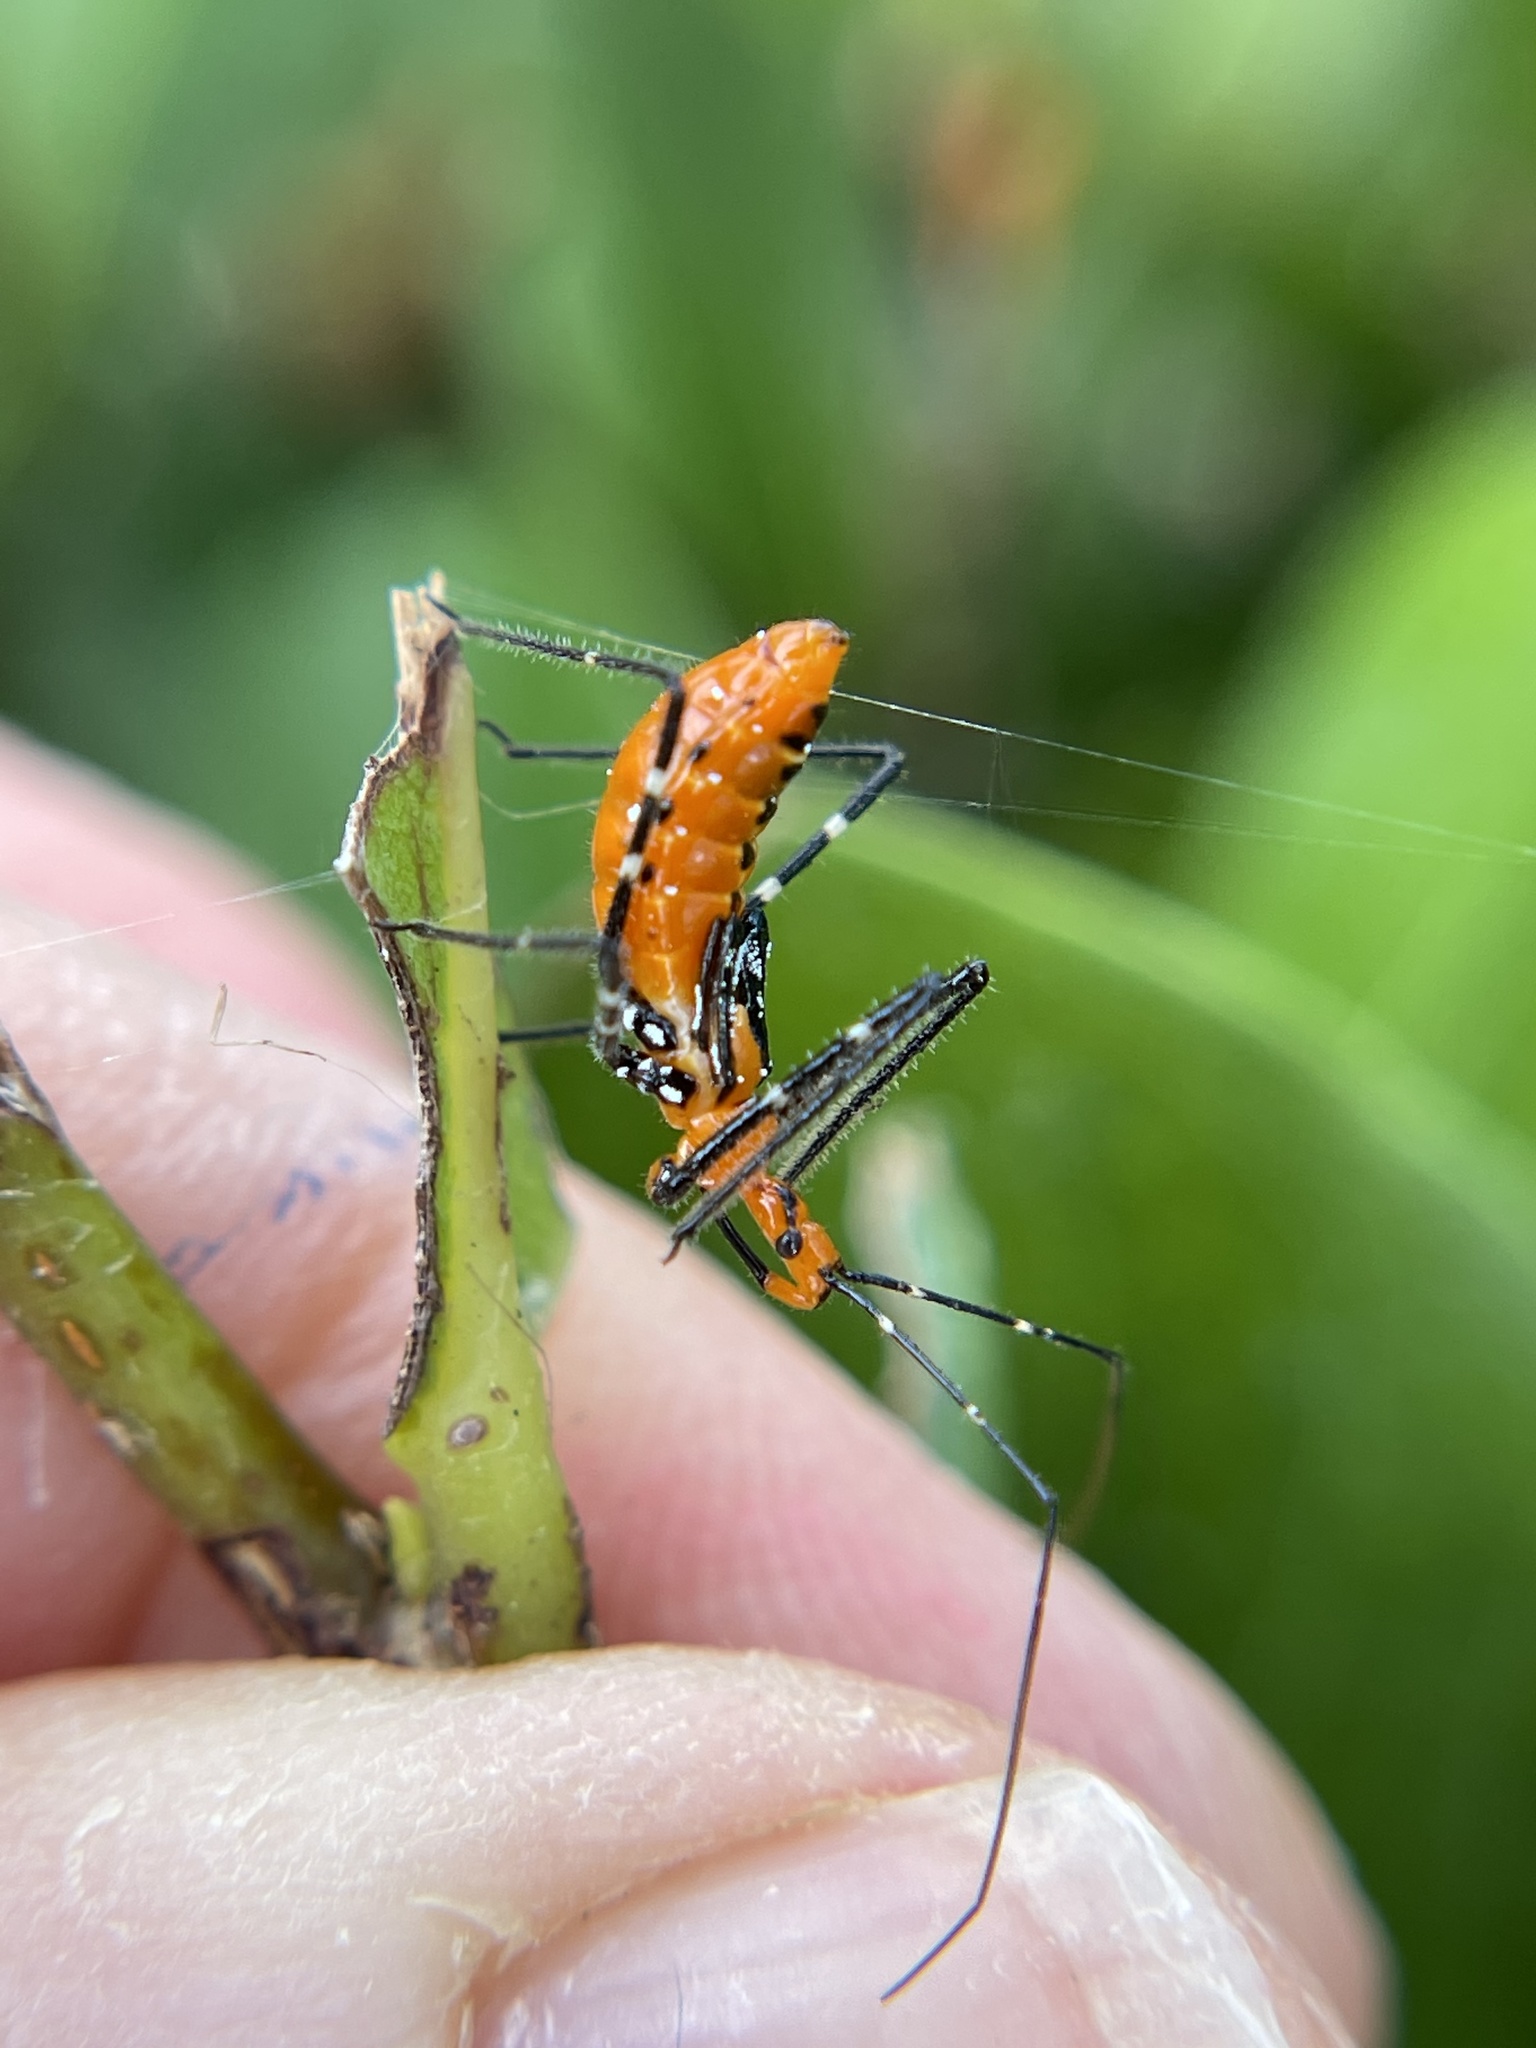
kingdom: Animalia
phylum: Arthropoda
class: Insecta
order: Hemiptera
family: Reduviidae
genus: Zelus
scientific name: Zelus longipes
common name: Milkweed assassin bug
